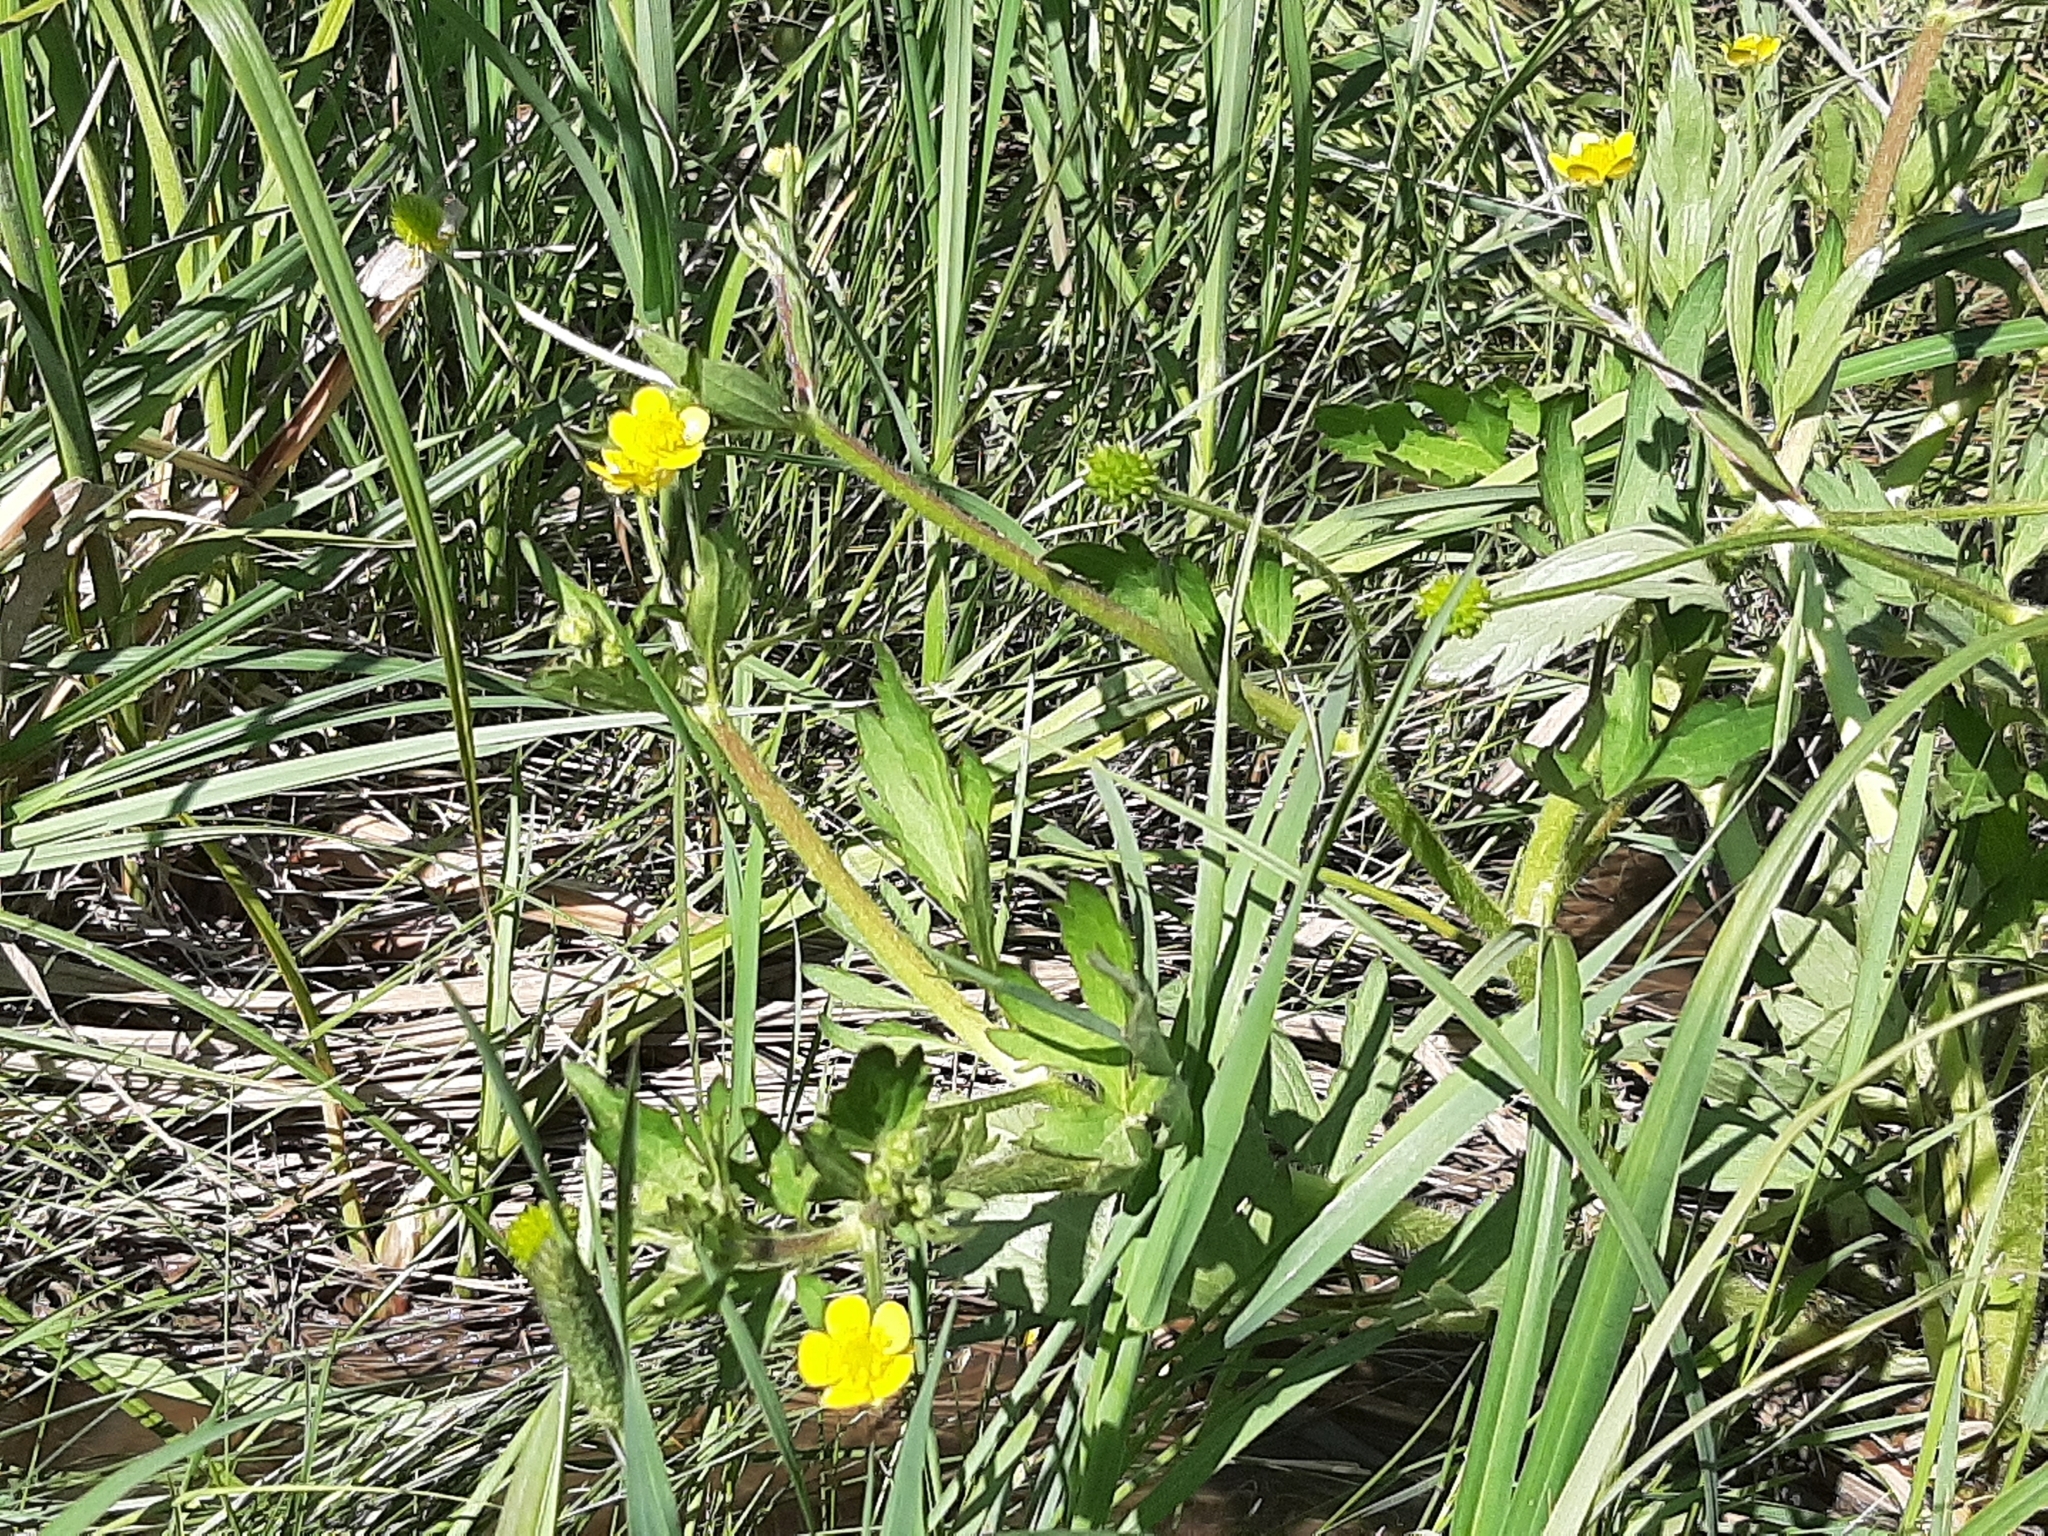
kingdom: Plantae
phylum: Tracheophyta
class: Magnoliopsida
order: Ranunculales
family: Ranunculaceae
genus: Ranunculus
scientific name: Ranunculus macounii
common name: Macoun's buttercup
